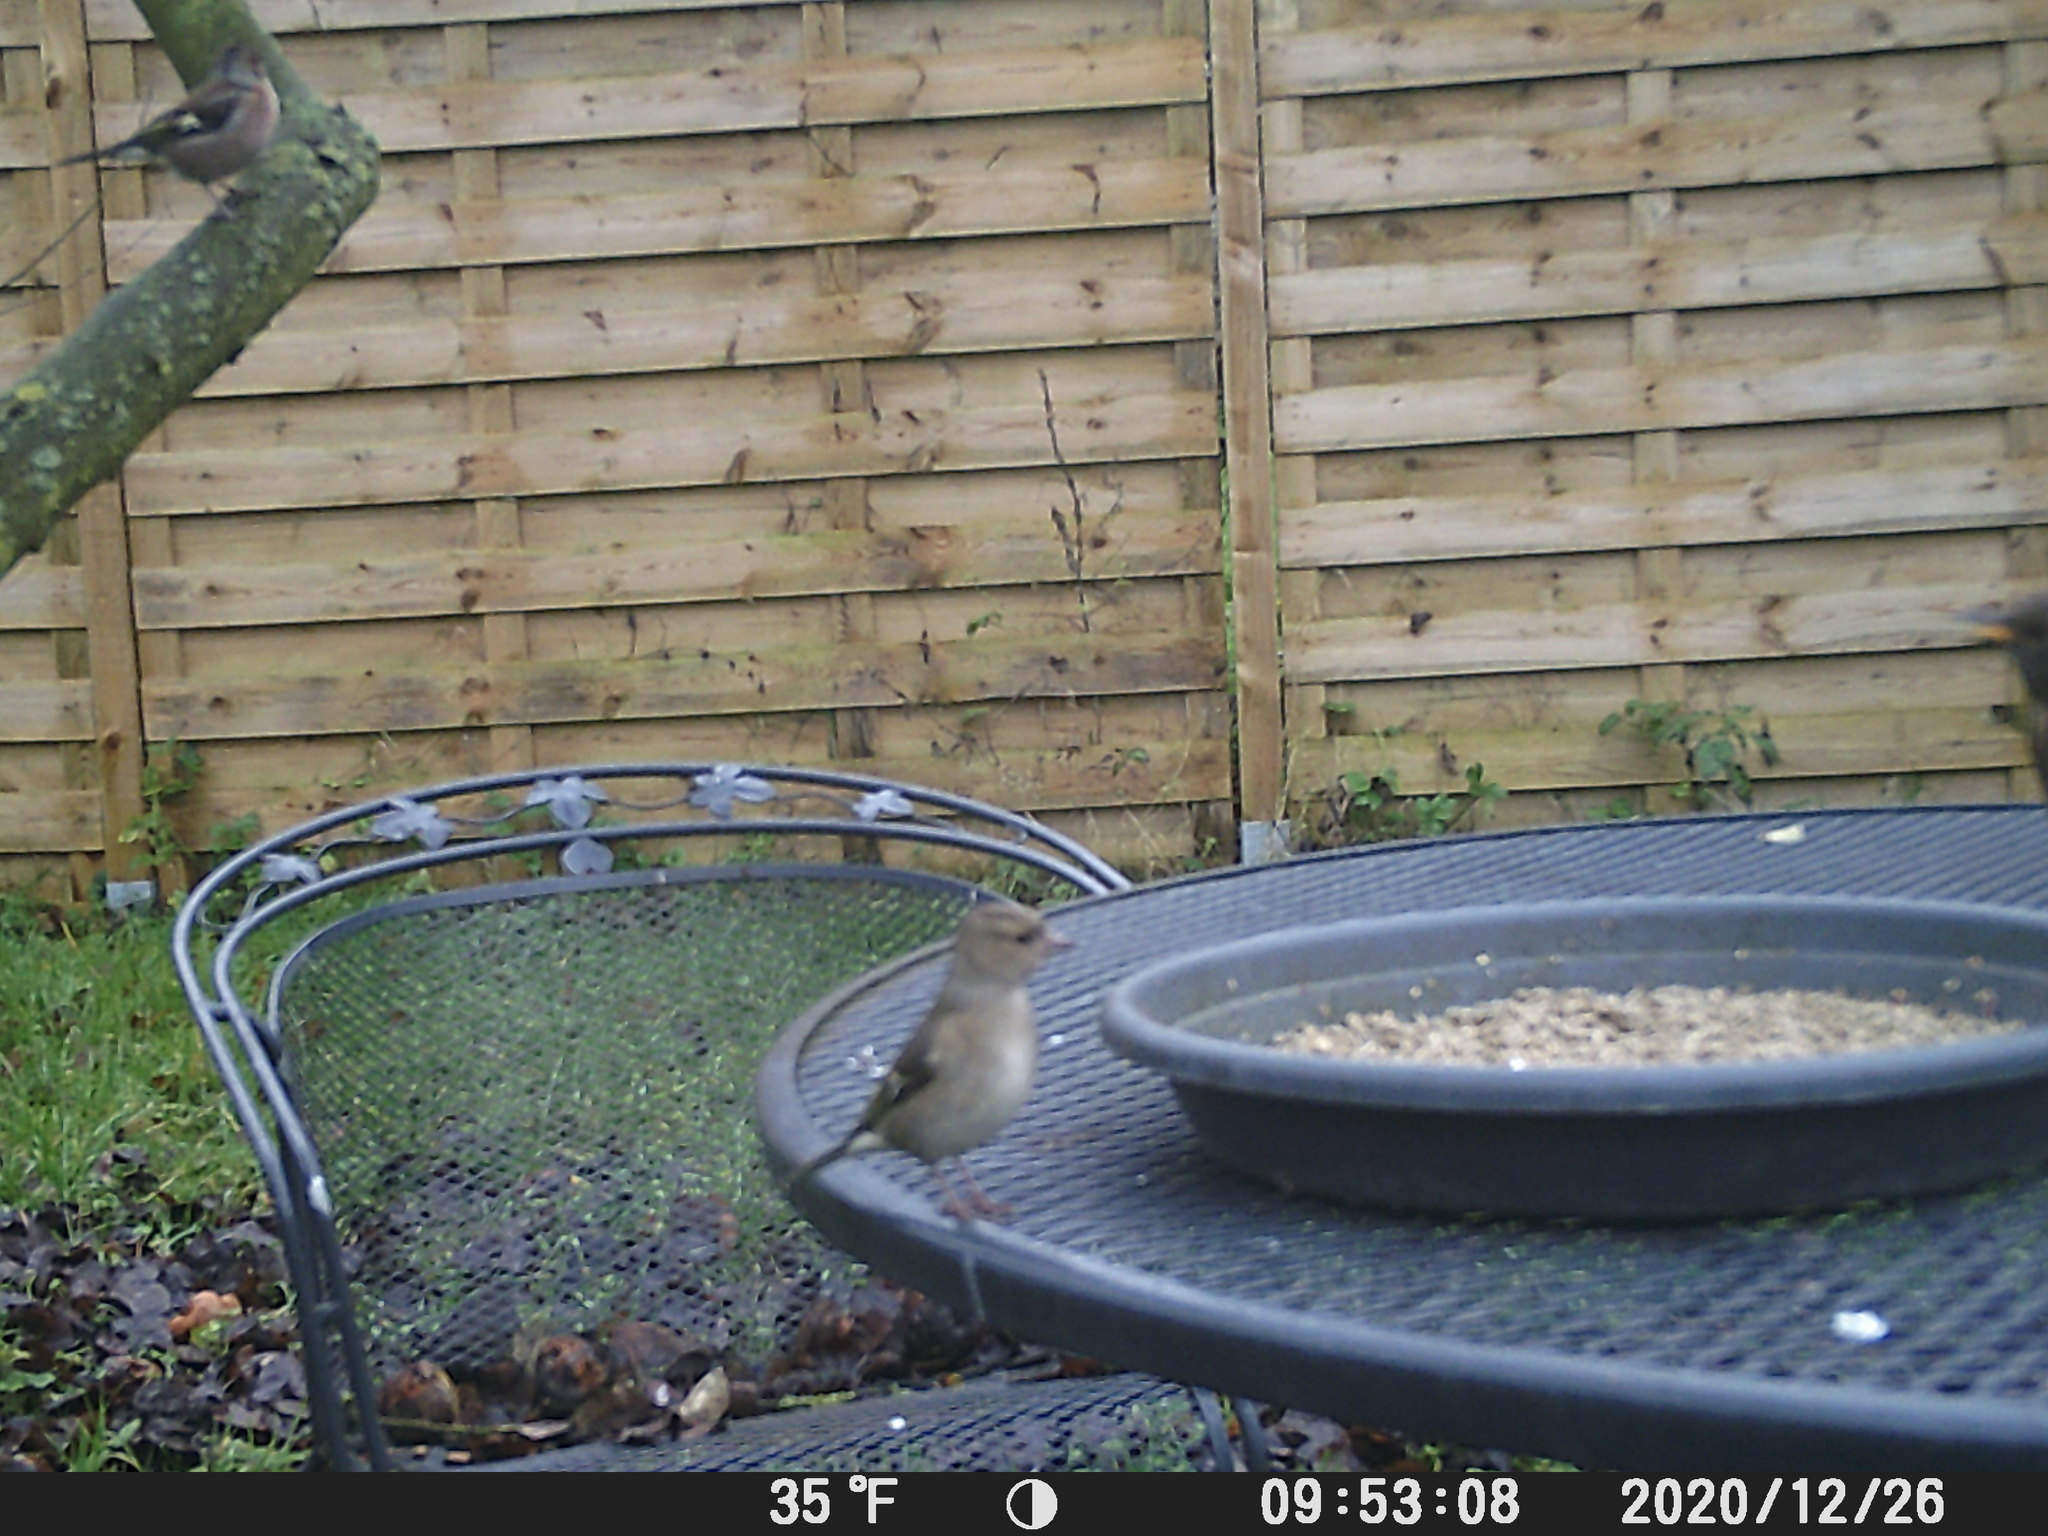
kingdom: Animalia
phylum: Chordata
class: Aves
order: Passeriformes
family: Fringillidae
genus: Fringilla
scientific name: Fringilla coelebs
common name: Common chaffinch
